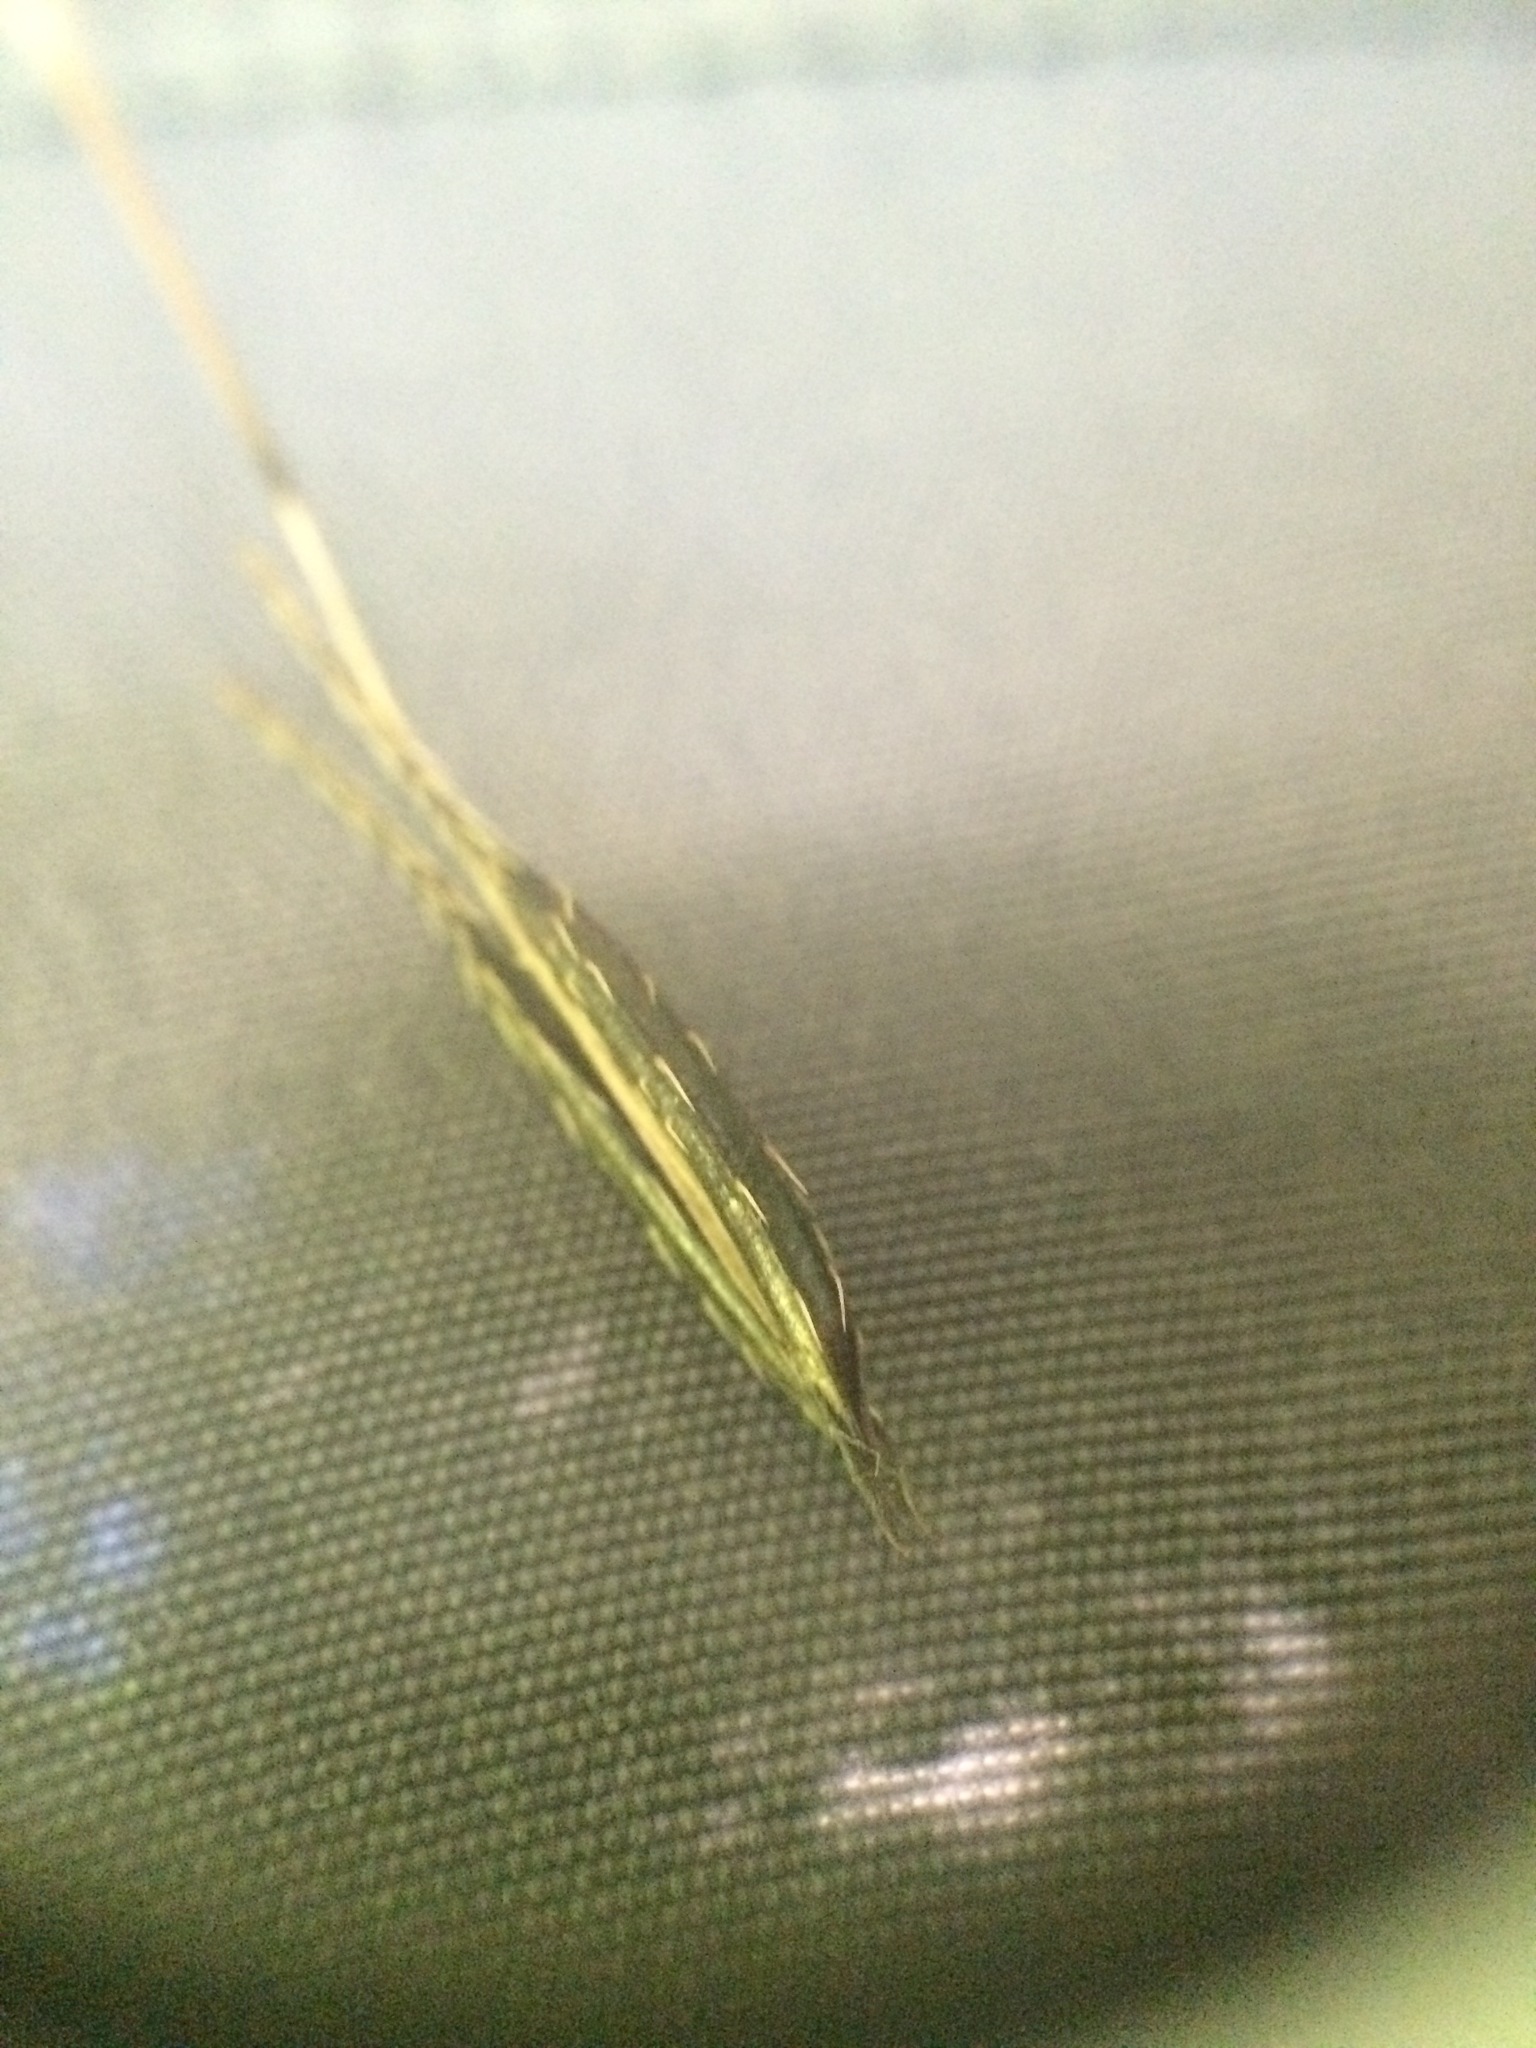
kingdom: Plantae
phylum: Tracheophyta
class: Magnoliopsida
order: Apiales
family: Apiaceae
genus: Osmorhiza
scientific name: Osmorhiza claytonii
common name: Hairy sweet cicely
